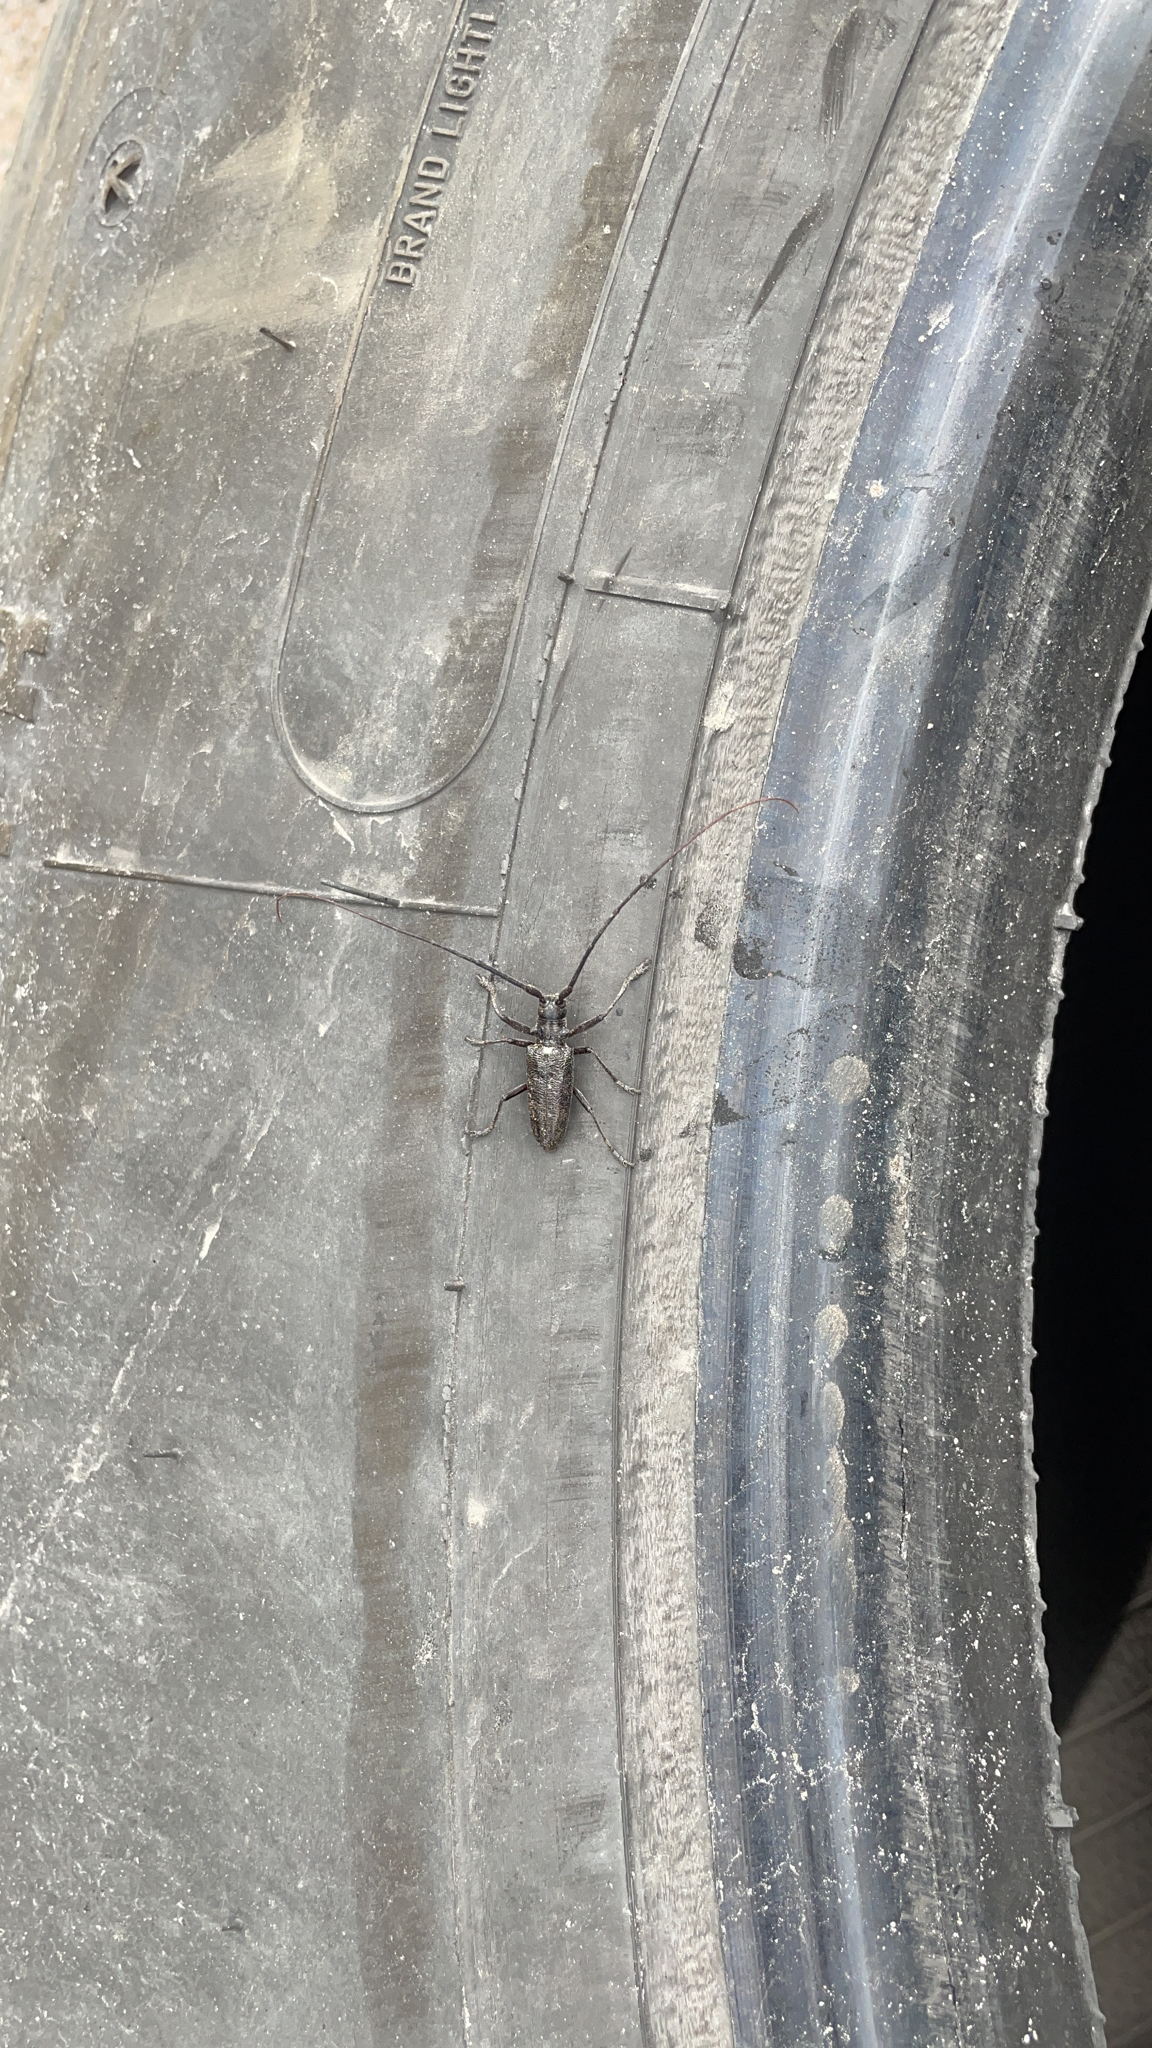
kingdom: Animalia
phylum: Arthropoda
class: Insecta
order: Coleoptera
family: Cerambycidae
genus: Monochamus
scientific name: Monochamus scutellatus
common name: White-spotted sawyer beetle
